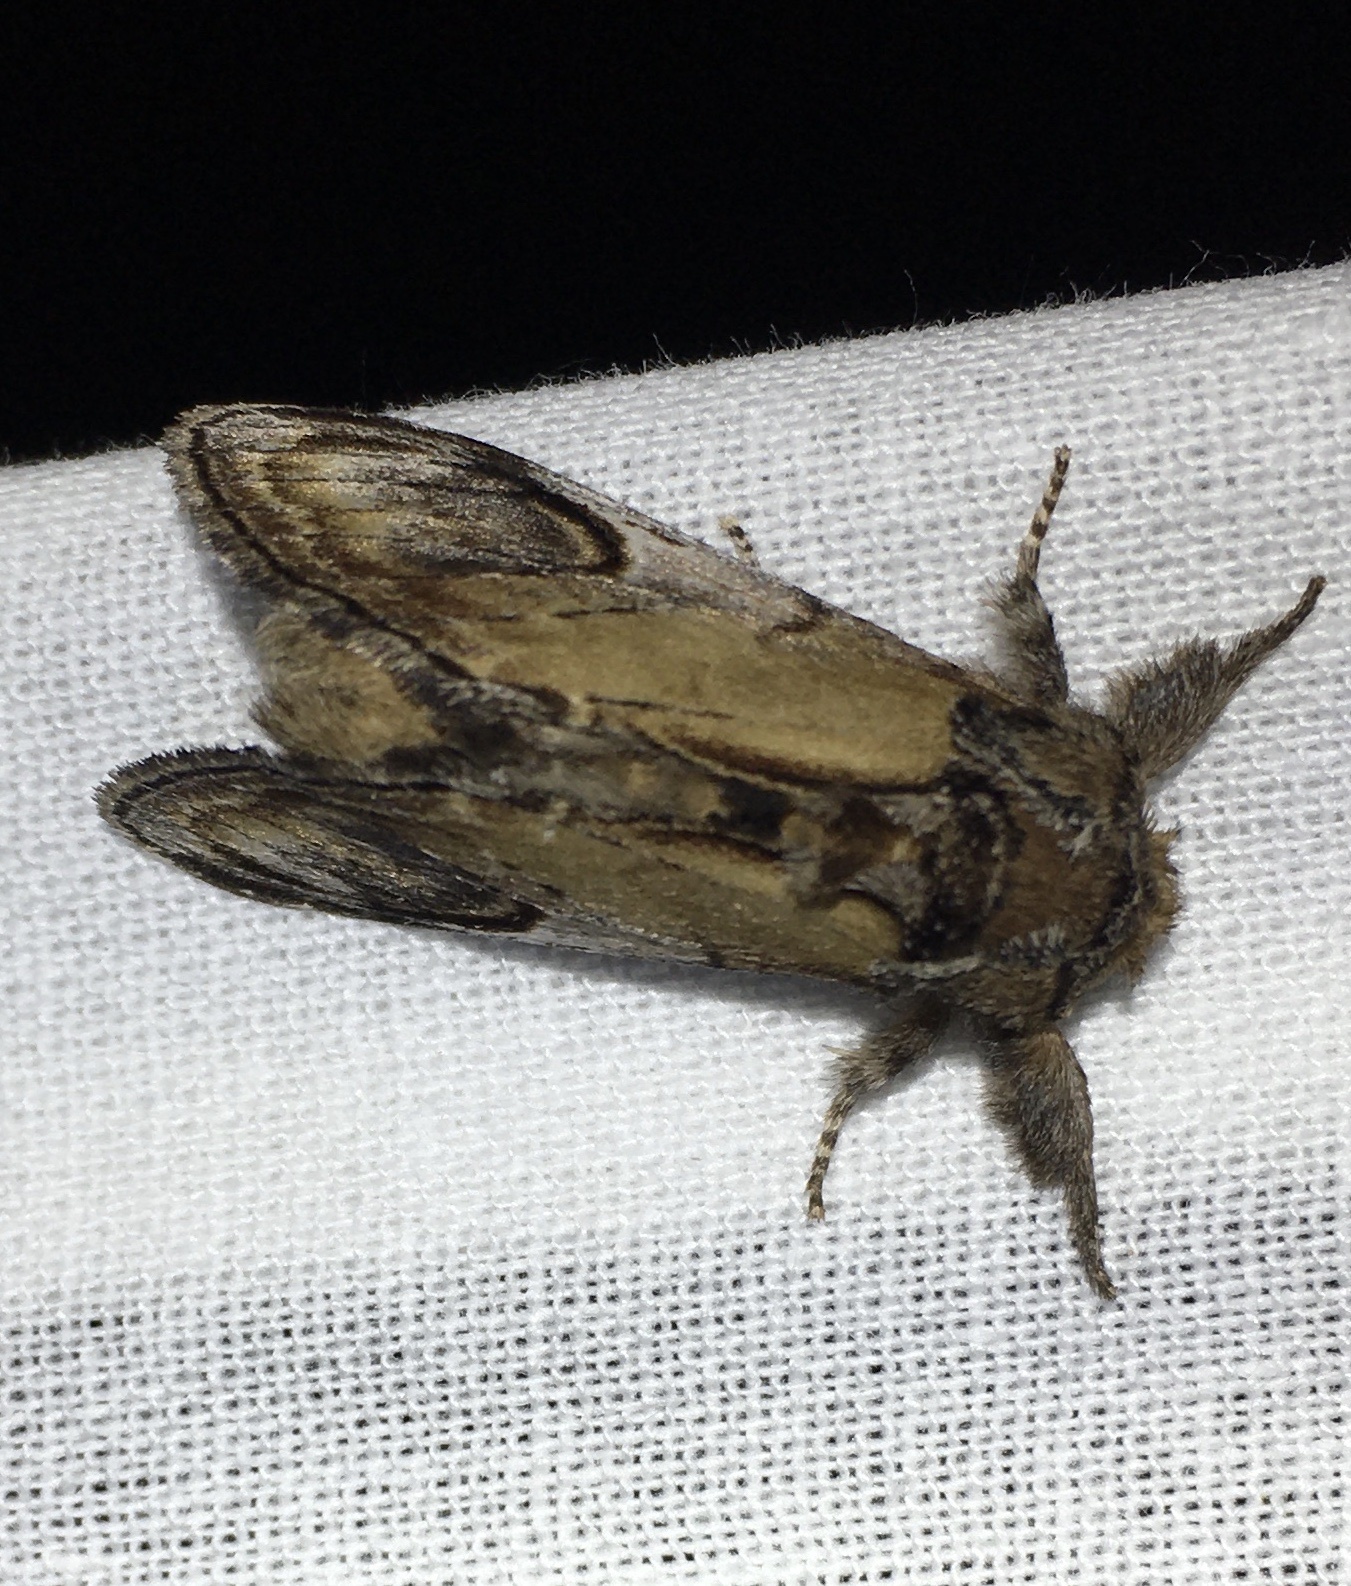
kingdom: Animalia
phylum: Arthropoda
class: Insecta
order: Lepidoptera
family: Notodontidae
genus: Notodonta
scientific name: Notodonta ziczac
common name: Pebble prominent
